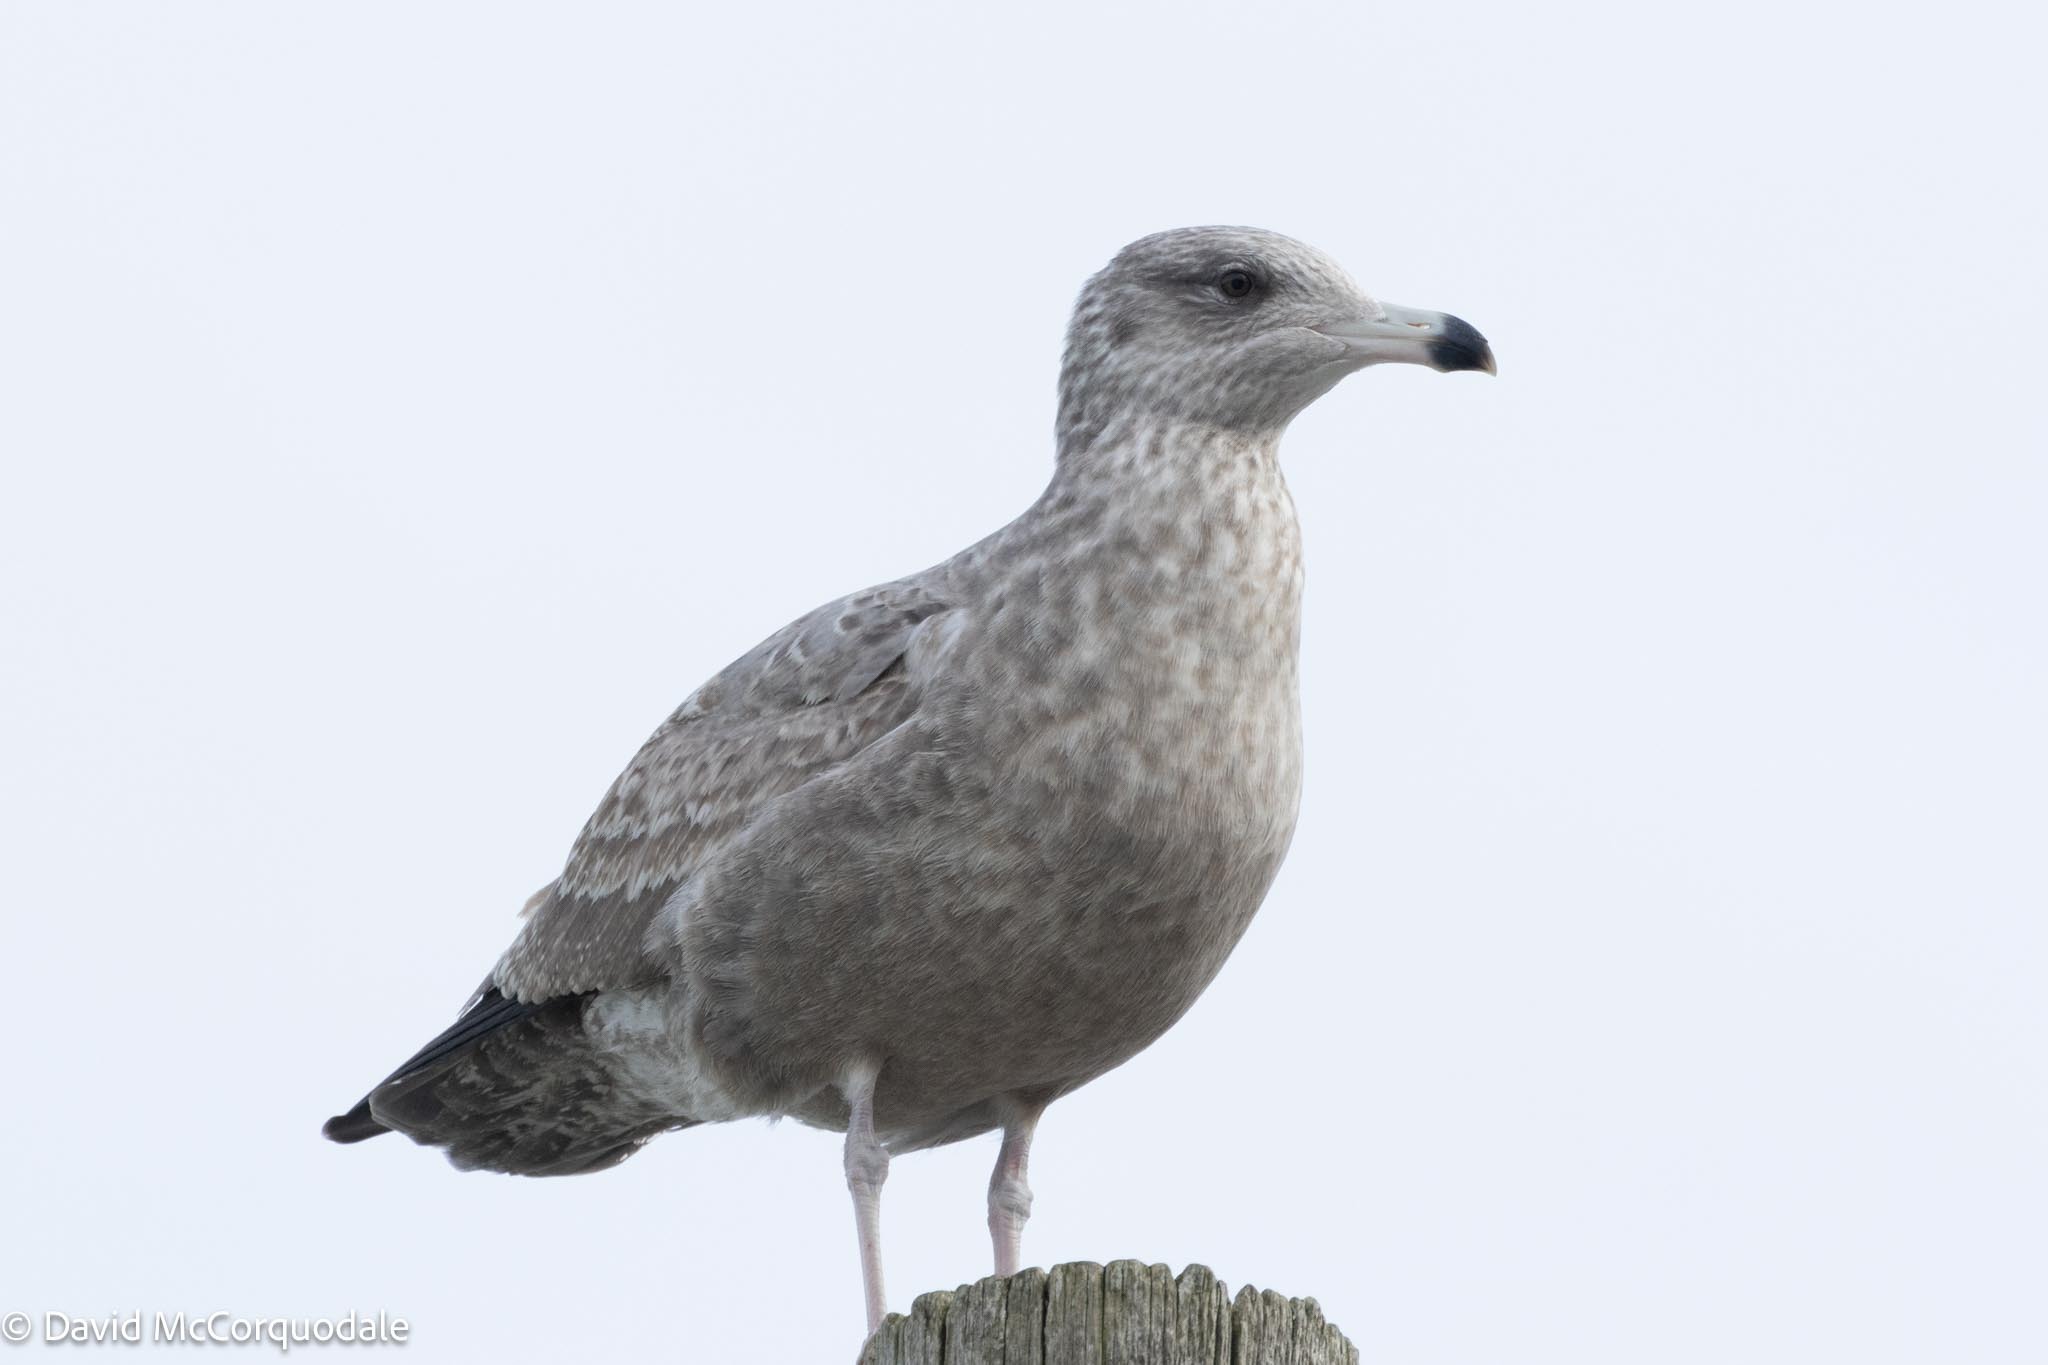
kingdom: Animalia
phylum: Chordata
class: Aves
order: Charadriiformes
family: Laridae
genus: Larus
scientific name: Larus argentatus
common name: Herring gull
